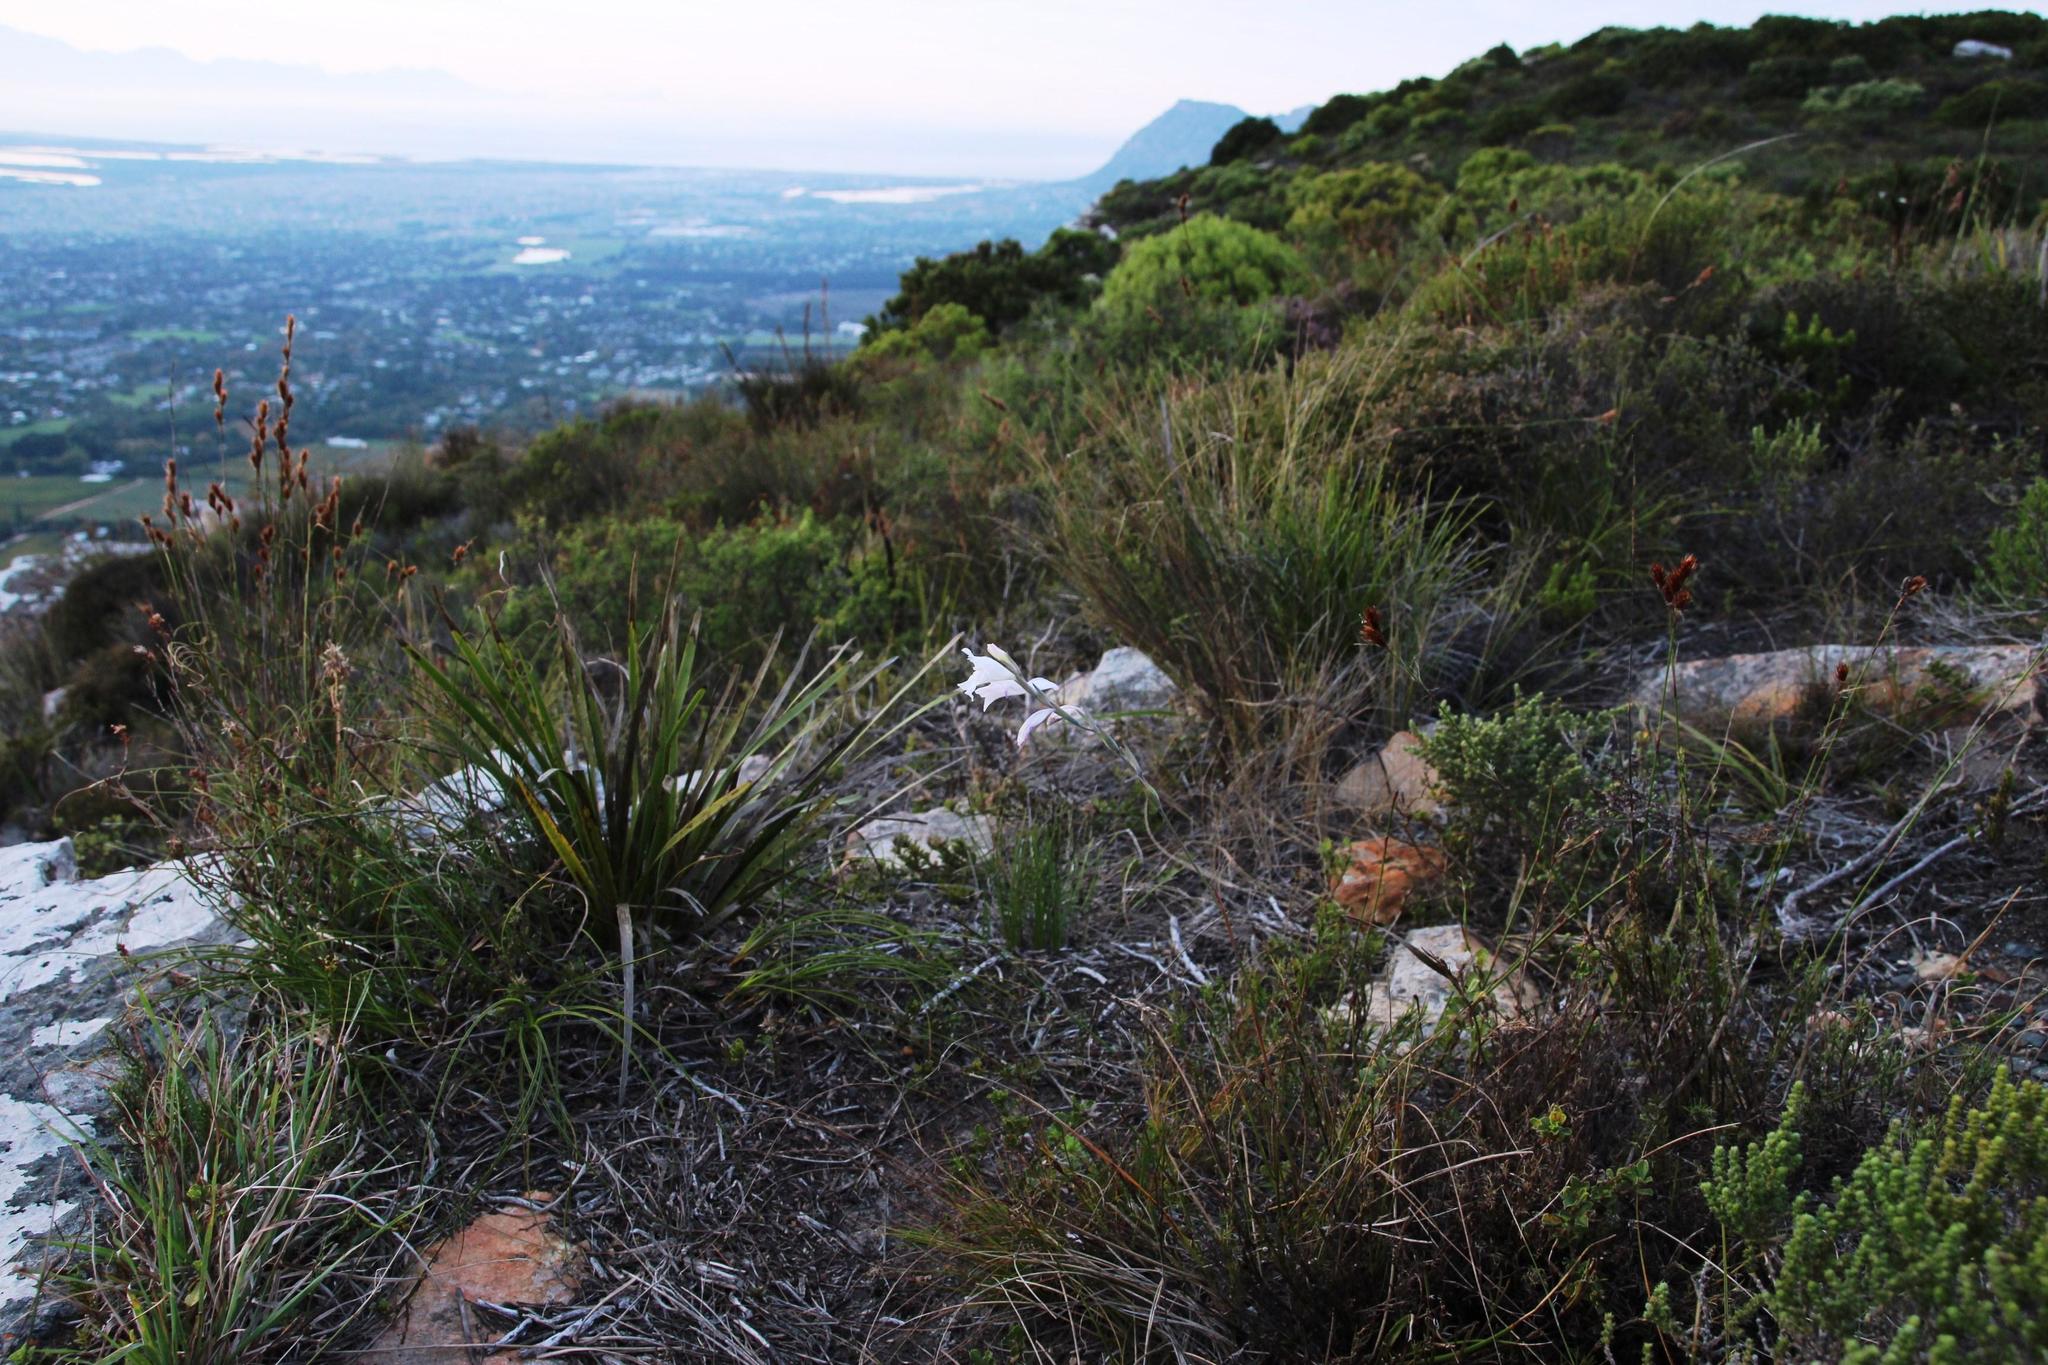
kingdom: Plantae
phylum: Tracheophyta
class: Liliopsida
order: Asparagales
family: Iridaceae
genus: Gladiolus
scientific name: Gladiolus brevifolius
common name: March pypie
